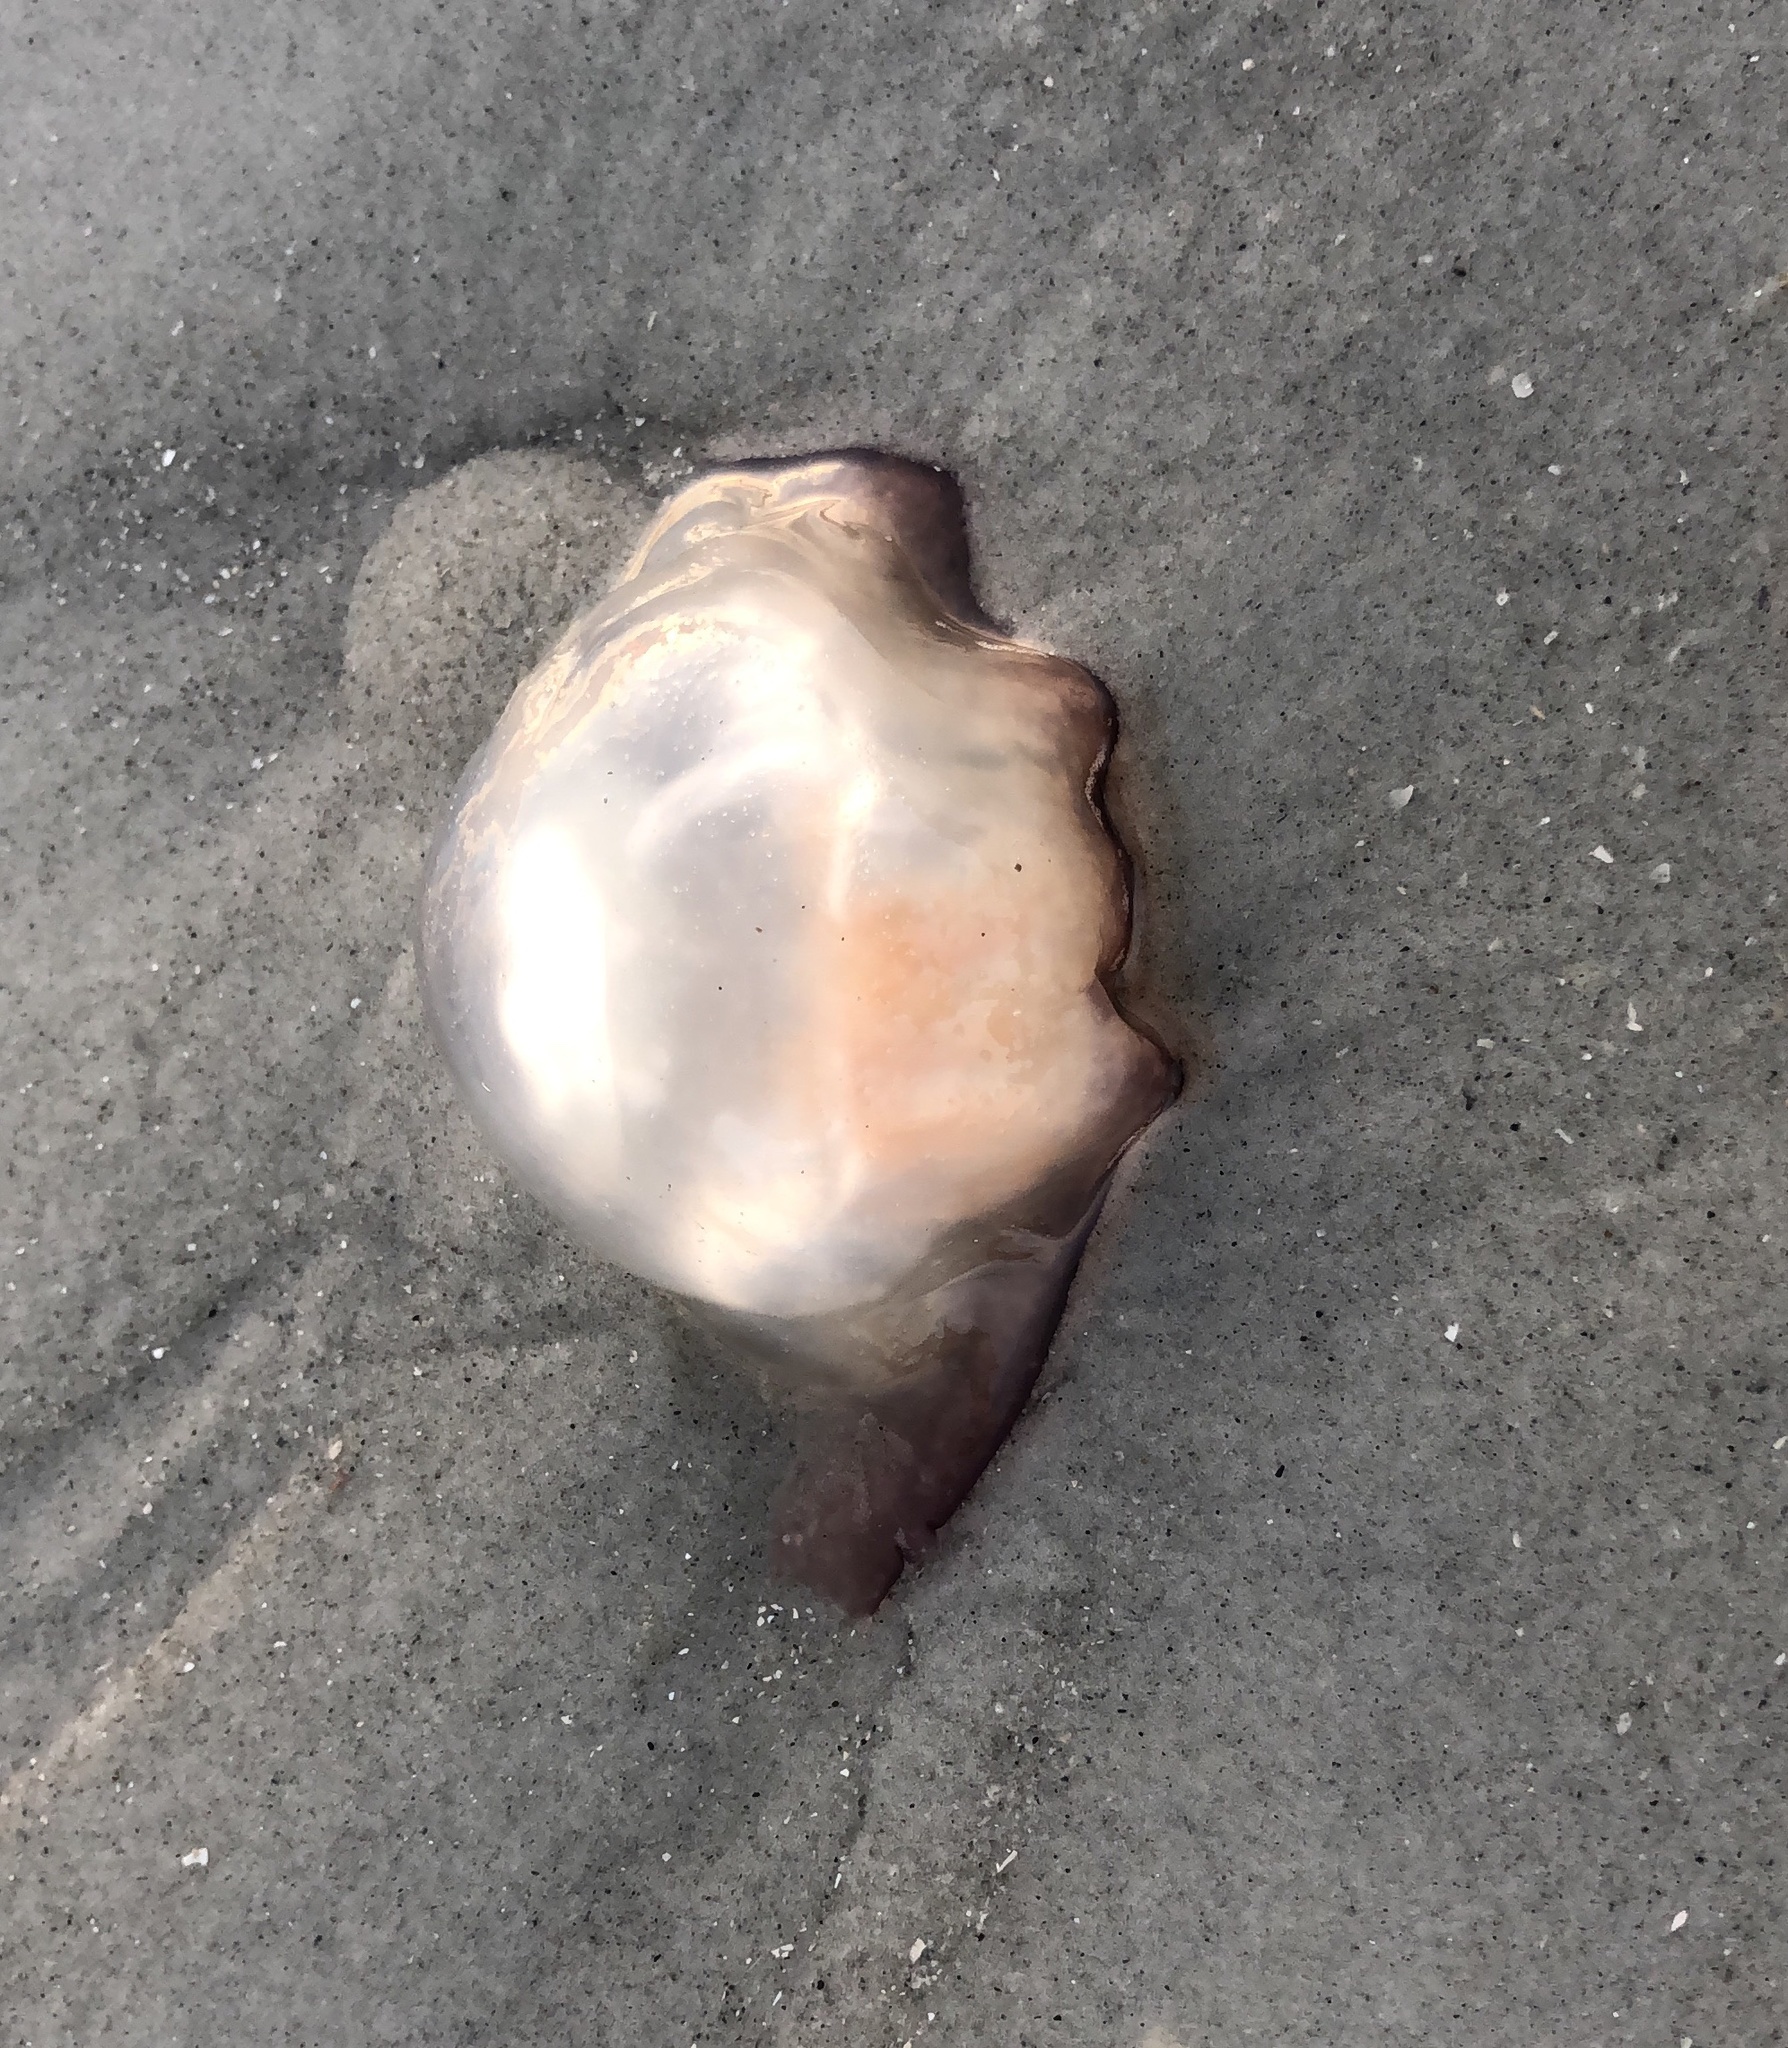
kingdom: Animalia
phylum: Cnidaria
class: Scyphozoa
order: Rhizostomeae
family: Stomolophidae
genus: Stomolophus
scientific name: Stomolophus meleagris
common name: Cabbagehead
